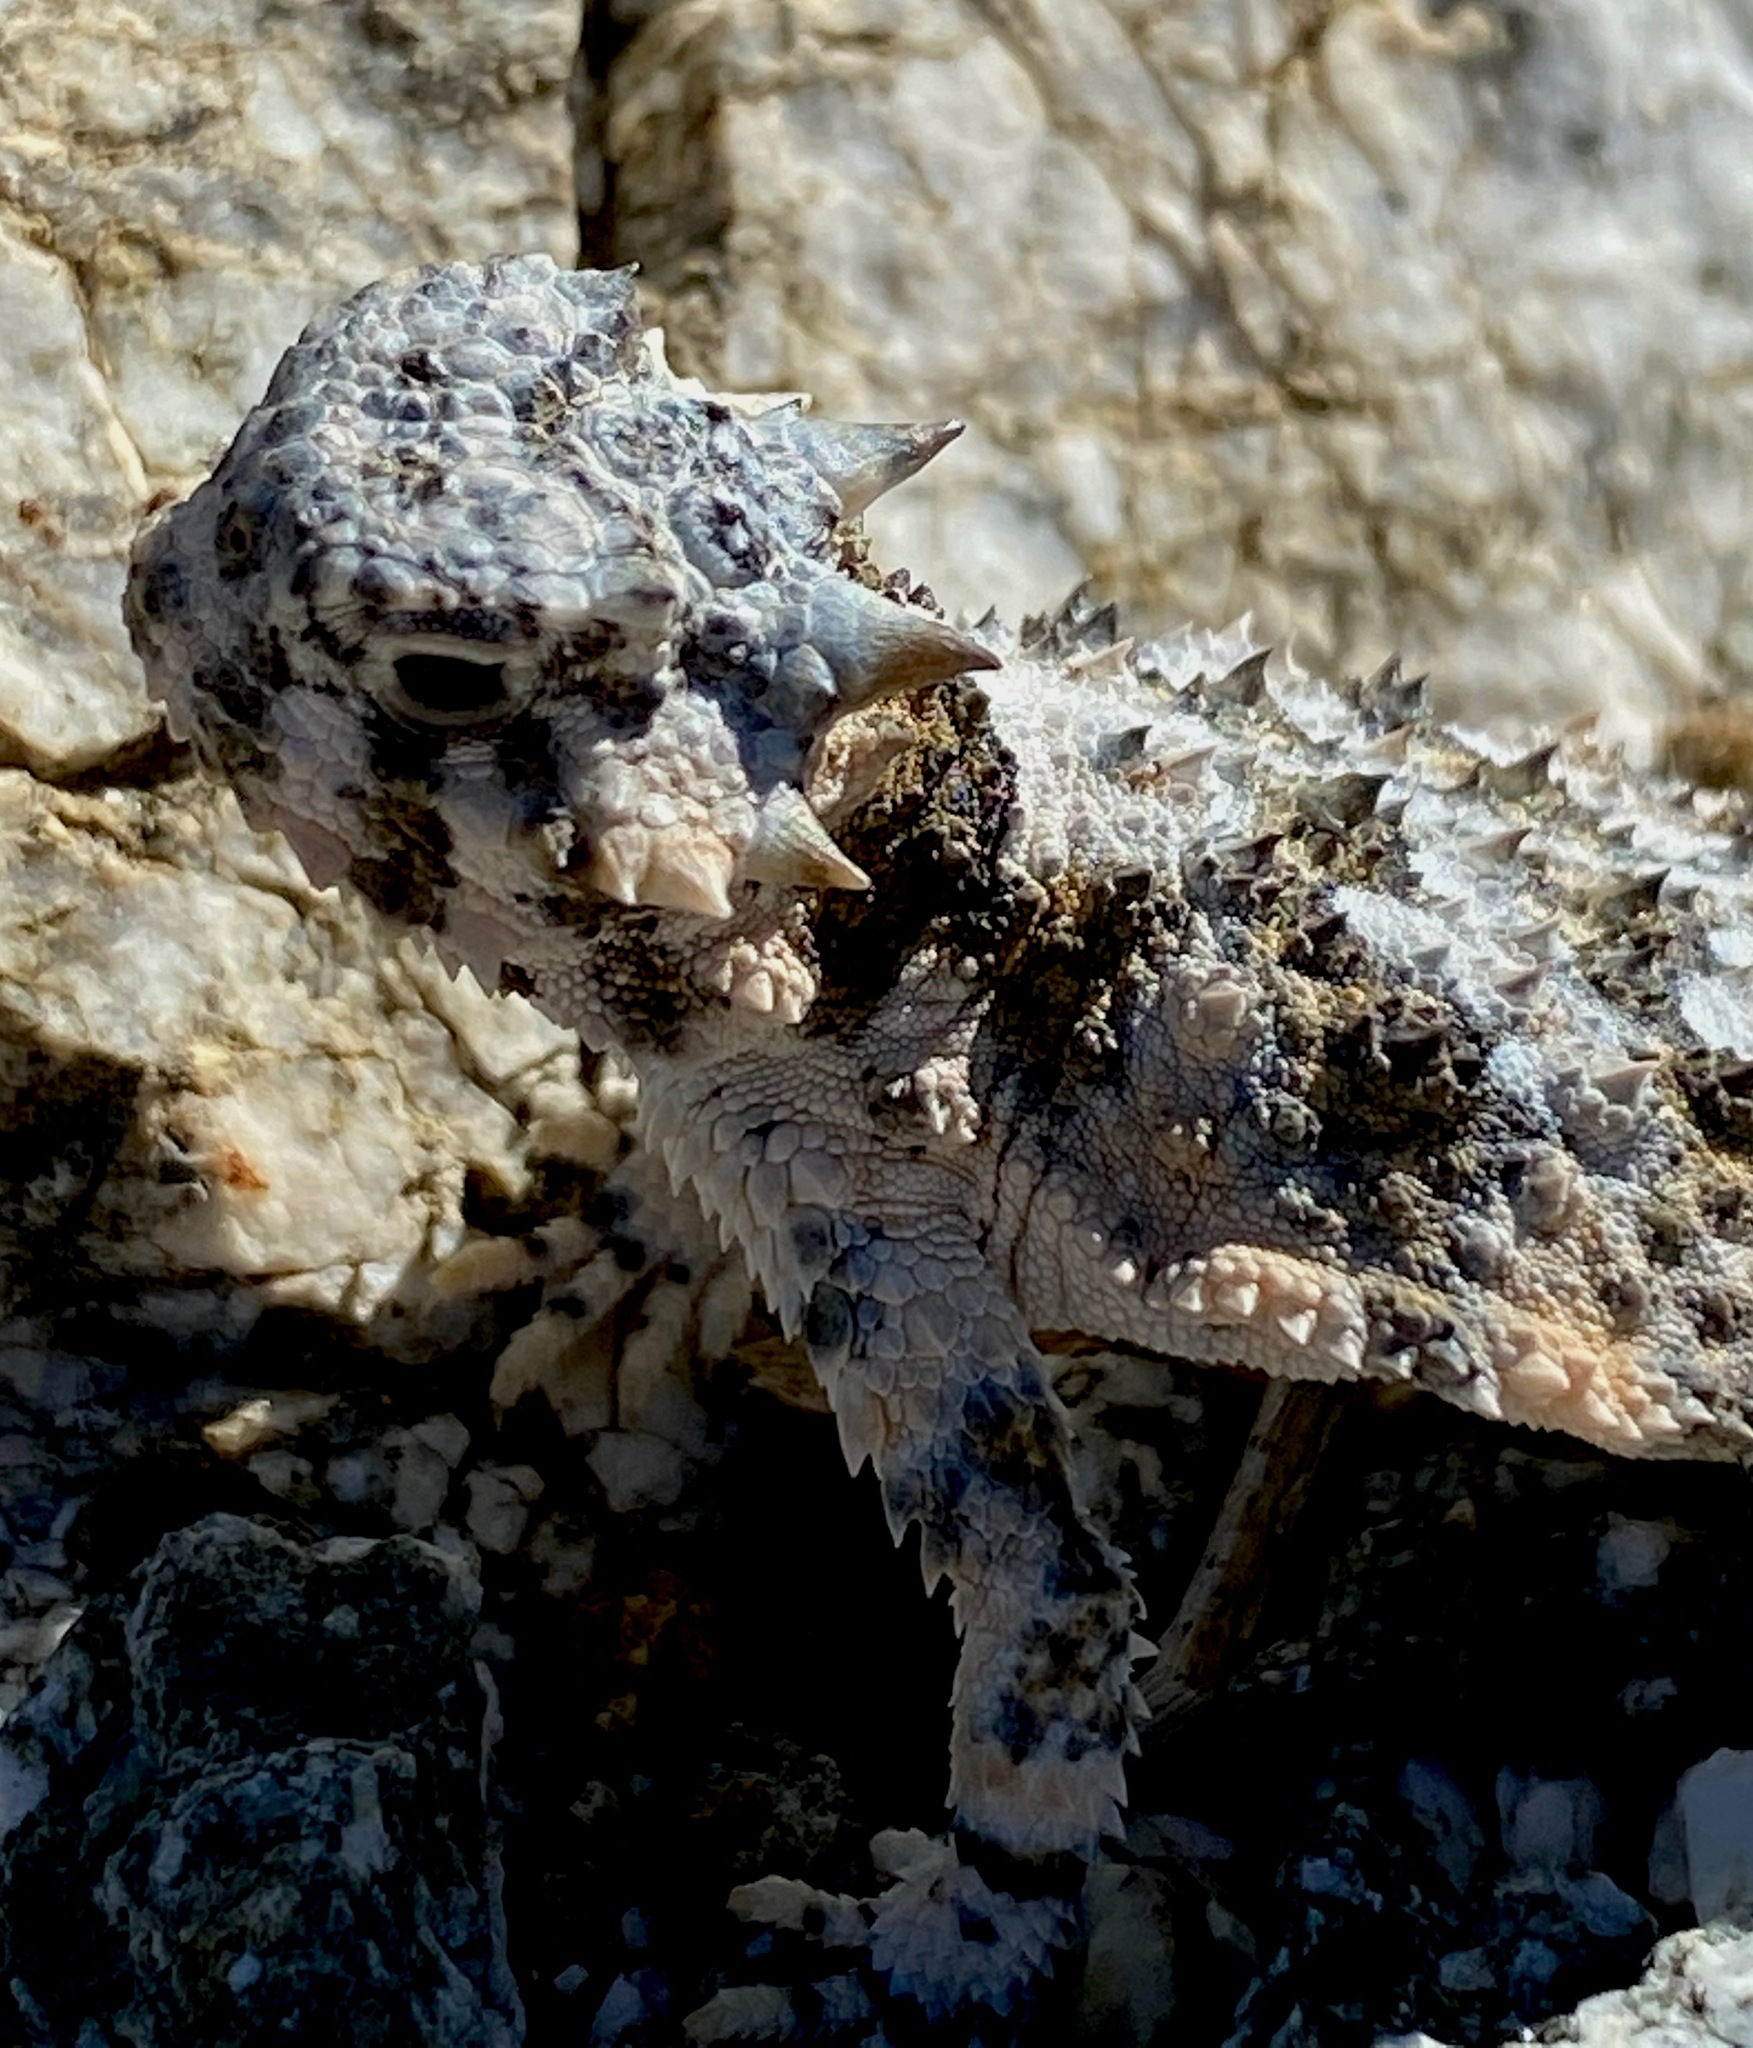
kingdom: Animalia
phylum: Chordata
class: Squamata
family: Phrynosomatidae
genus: Phrynosoma
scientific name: Phrynosoma platyrhinos
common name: Desert horned lizard
